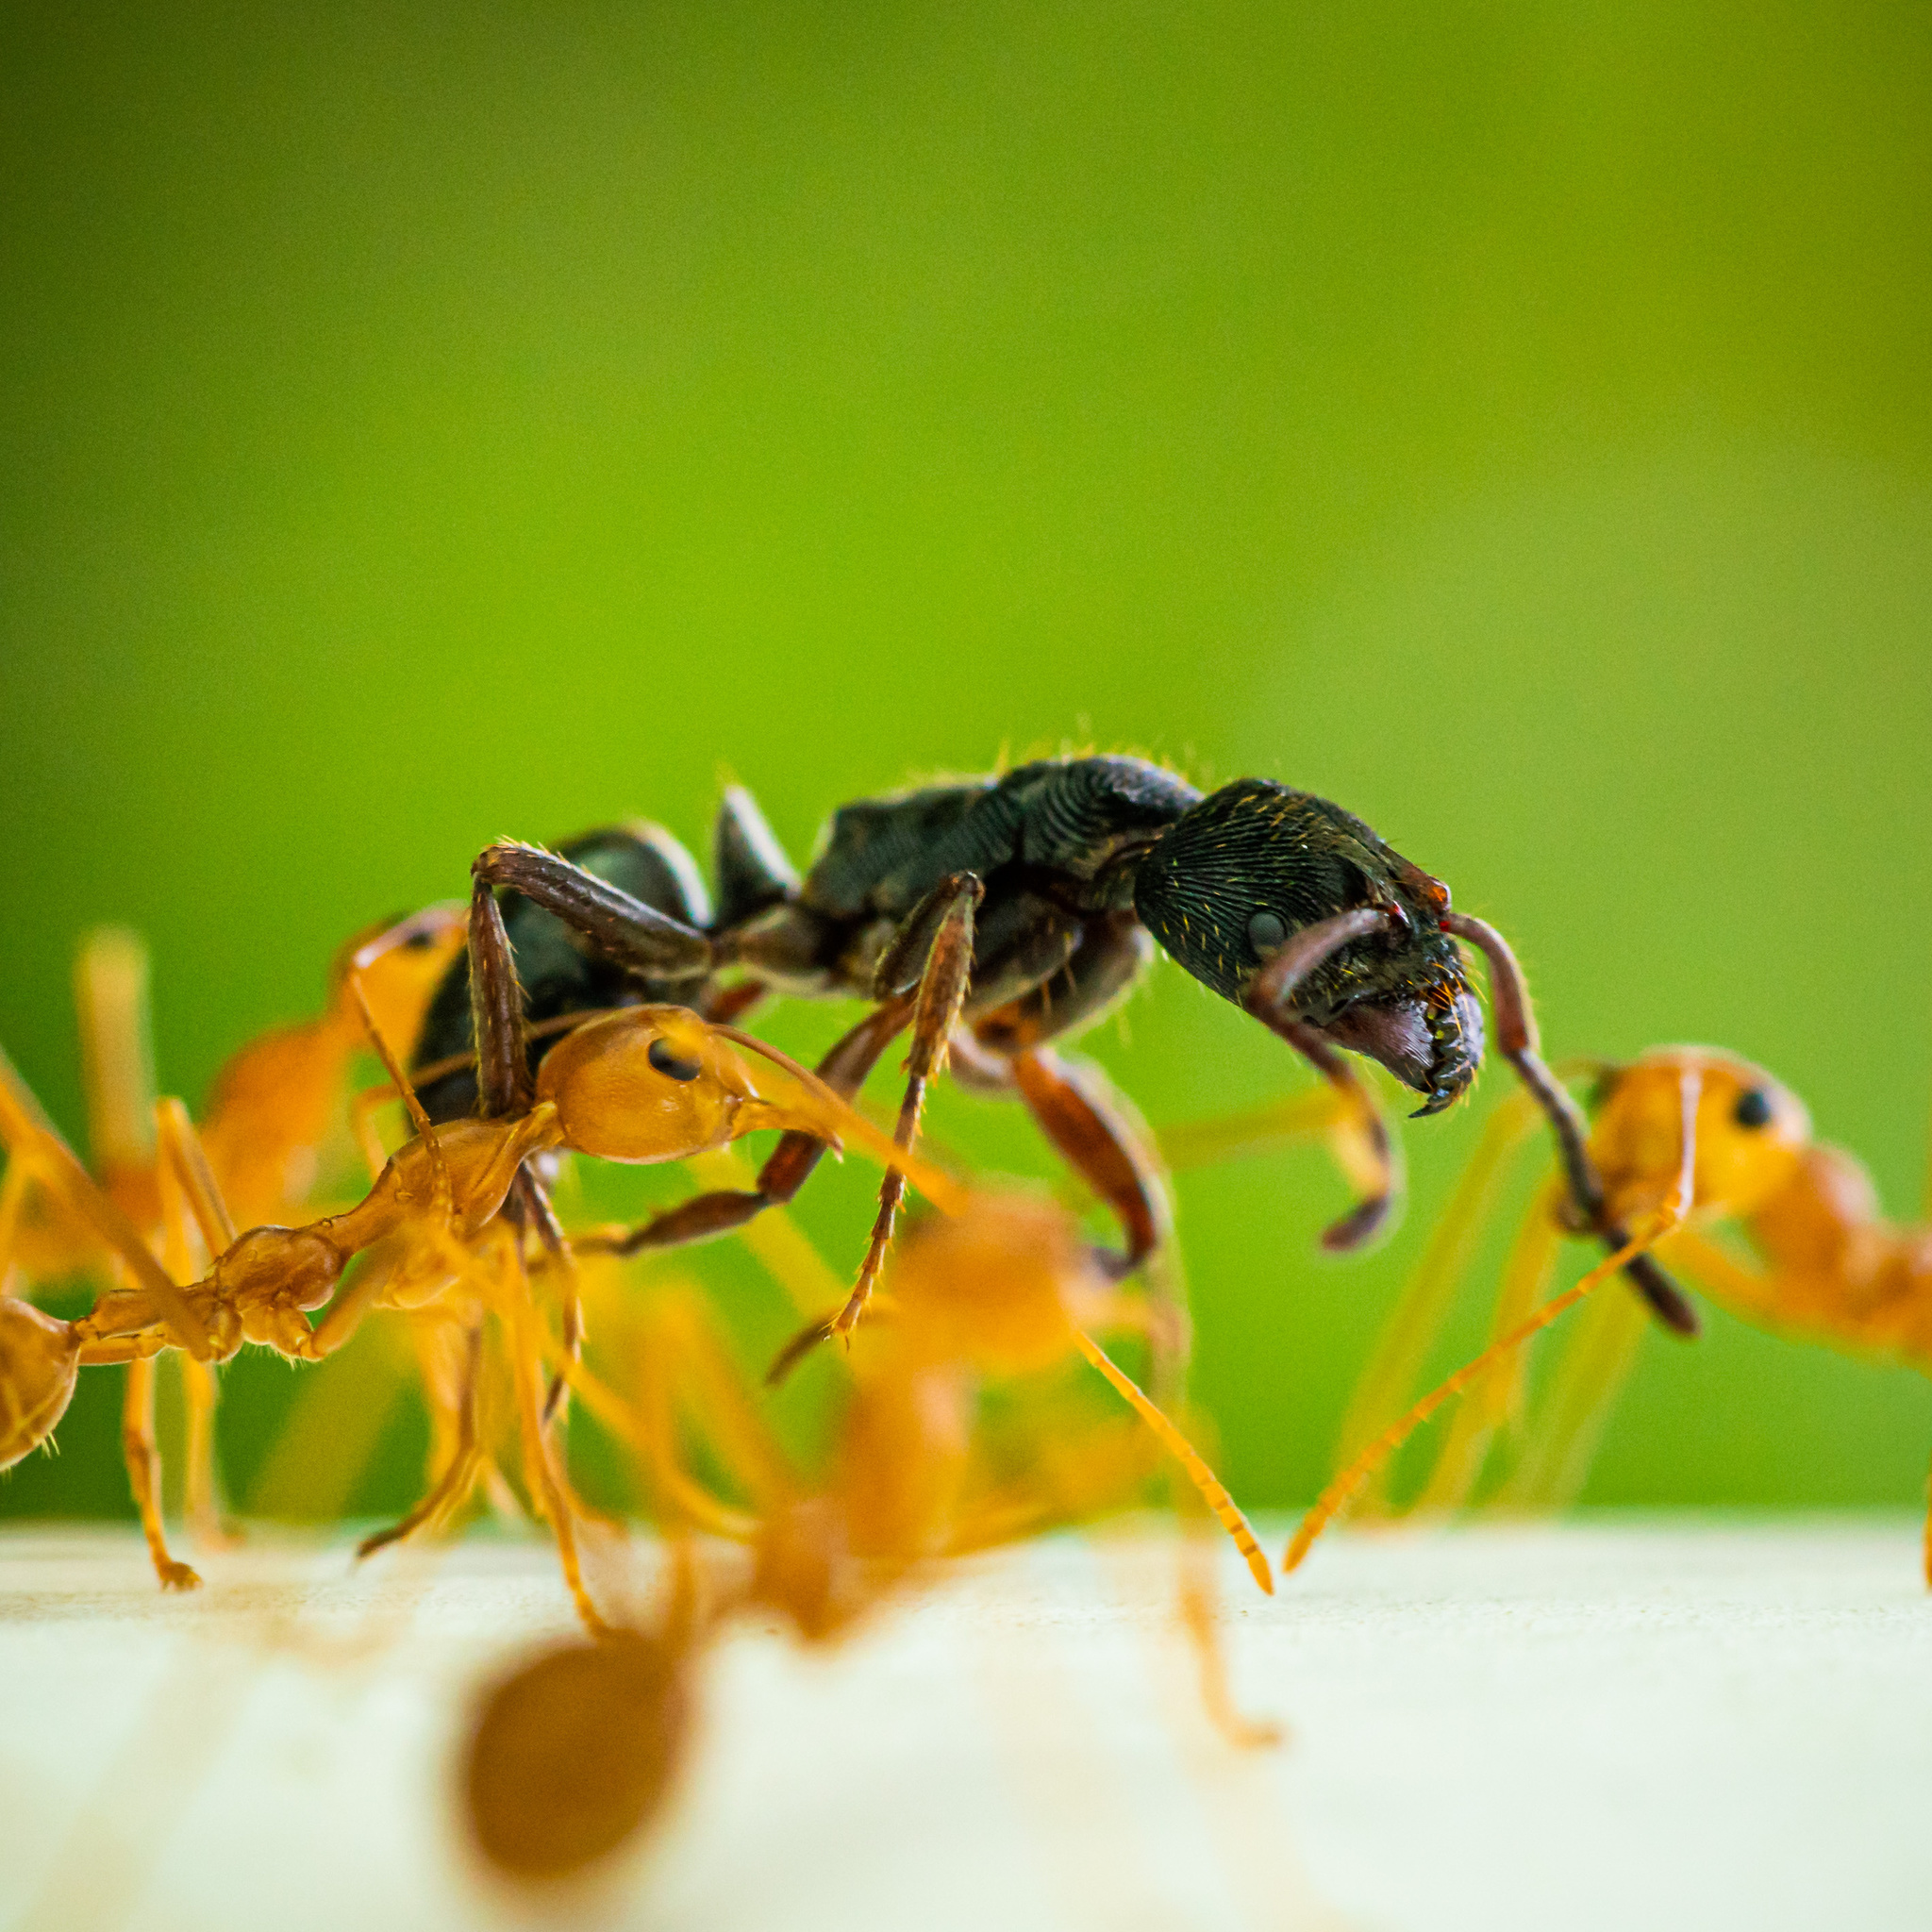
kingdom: Animalia
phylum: Arthropoda
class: Insecta
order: Hymenoptera
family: Formicidae
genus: Oecophylla
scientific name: Oecophylla smaragdina
